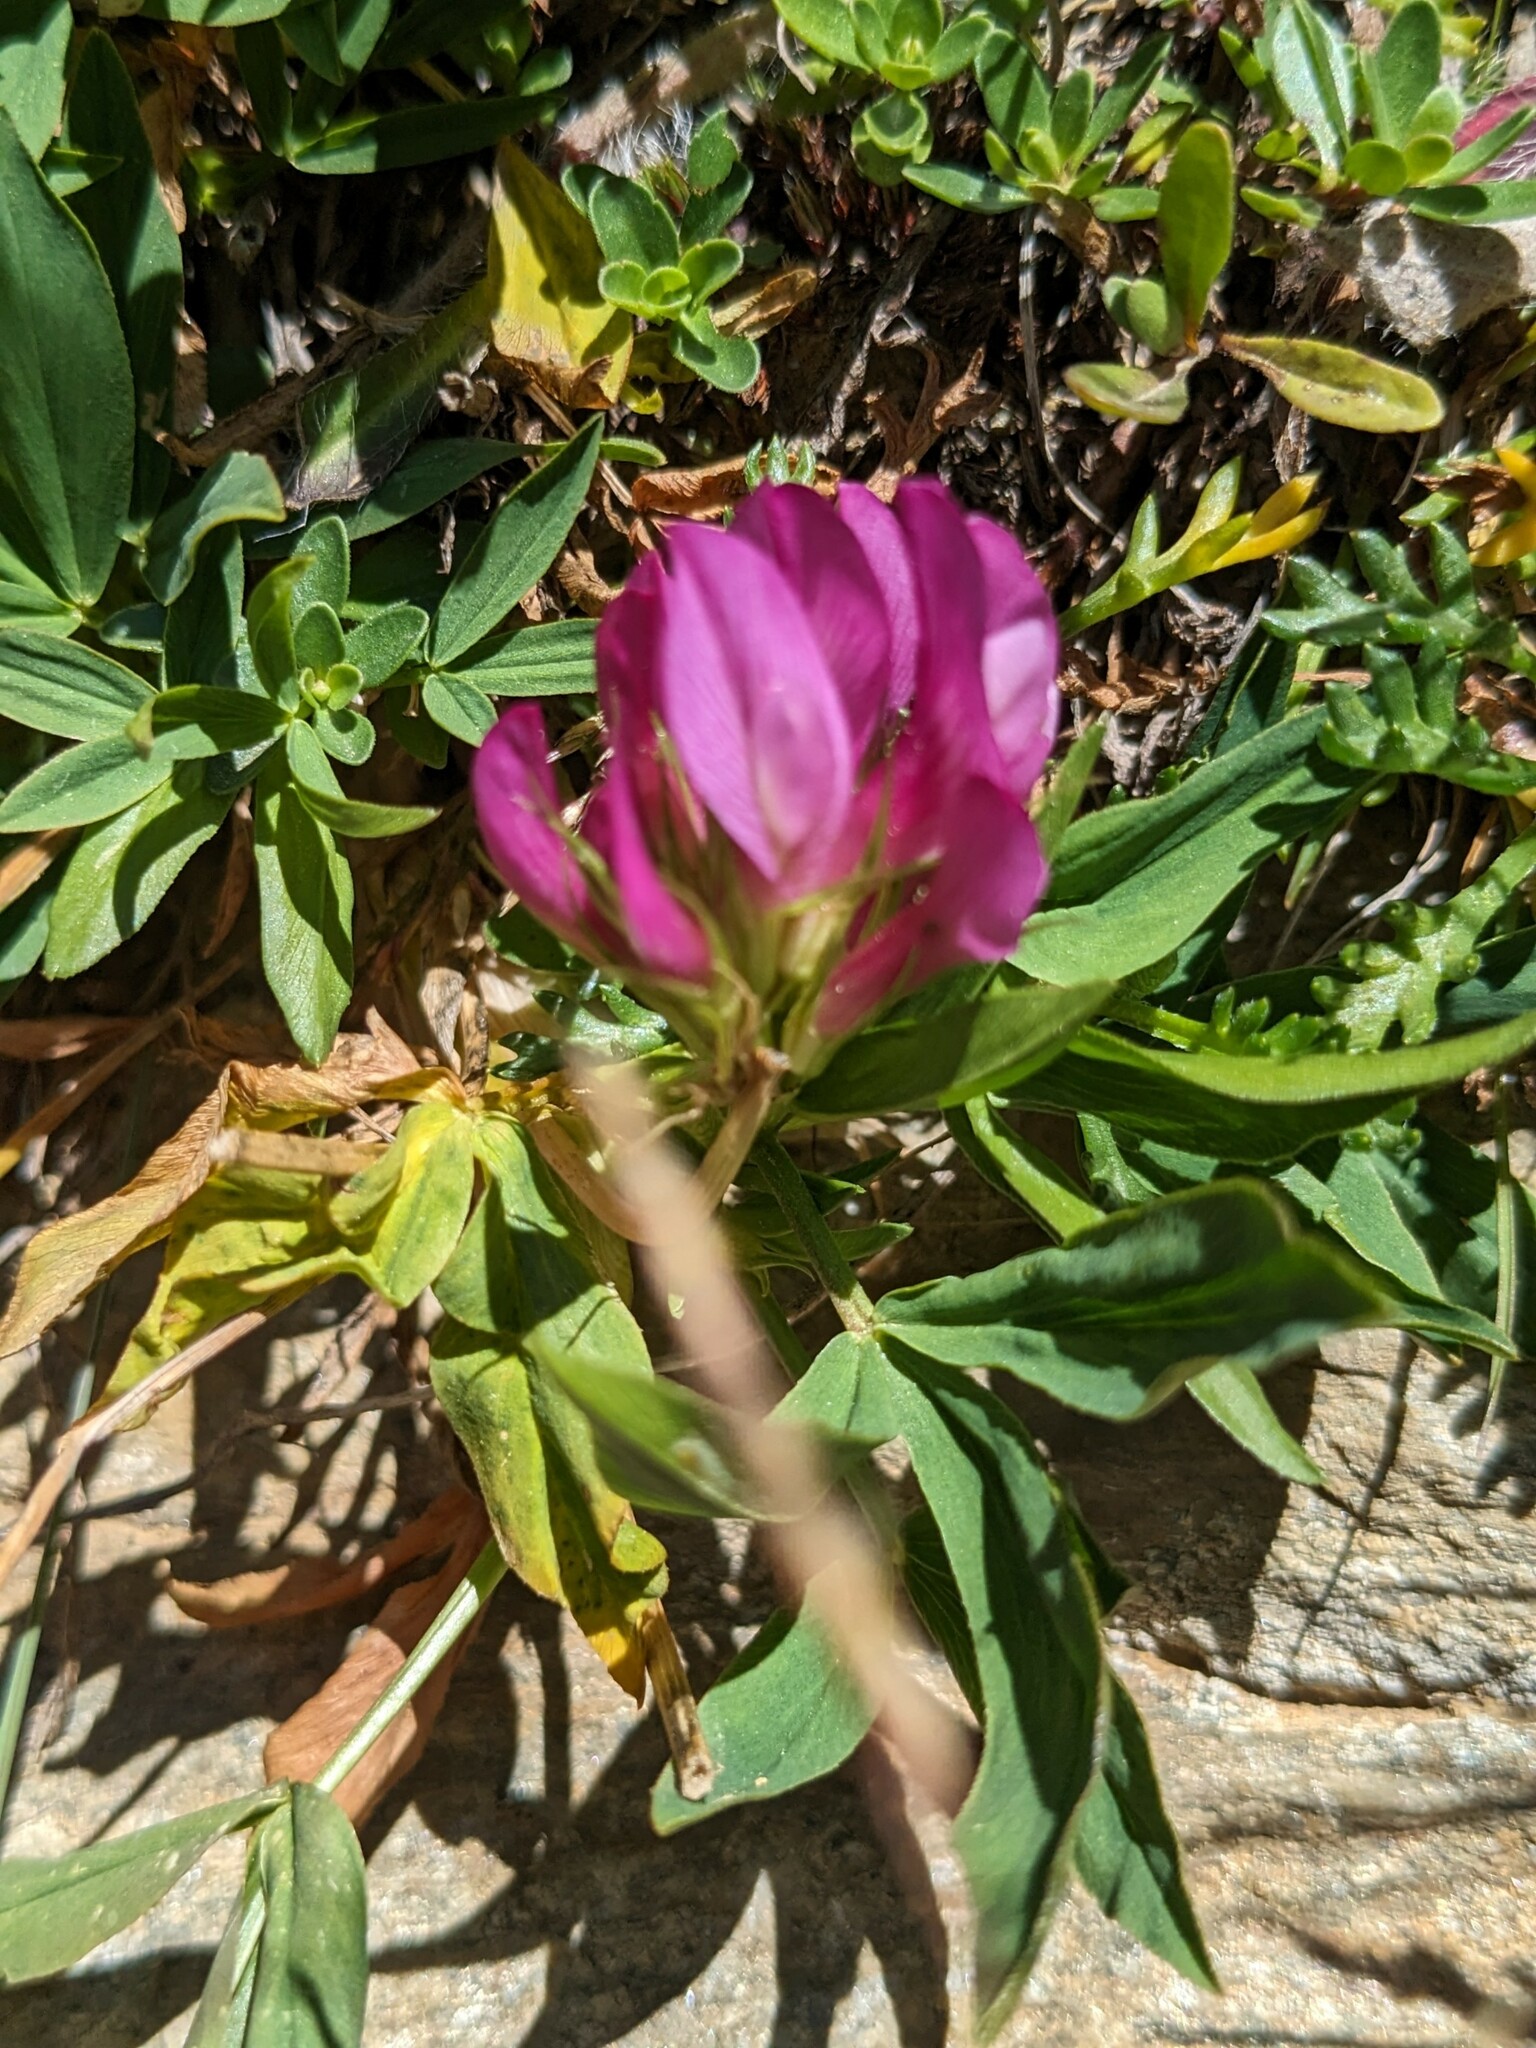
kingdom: Plantae
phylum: Tracheophyta
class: Magnoliopsida
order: Fabales
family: Fabaceae
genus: Trifolium
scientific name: Trifolium alpinum
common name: Alpine clover
